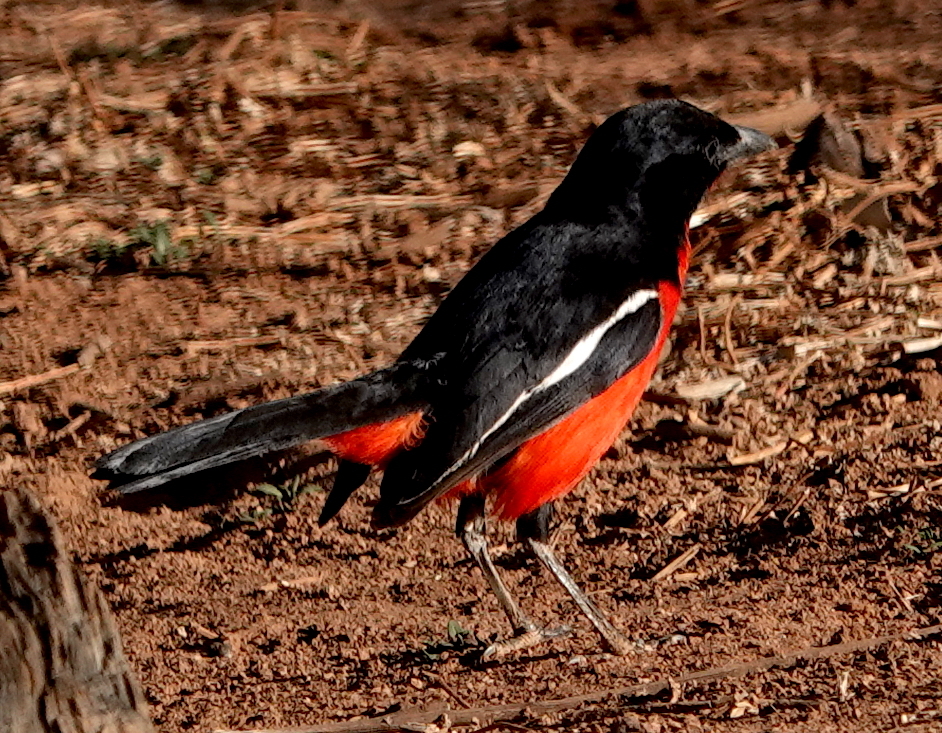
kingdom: Animalia
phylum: Chordata
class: Aves
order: Passeriformes
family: Malaconotidae
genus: Laniarius
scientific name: Laniarius atrococcineus
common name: Crimson-breasted shrike
